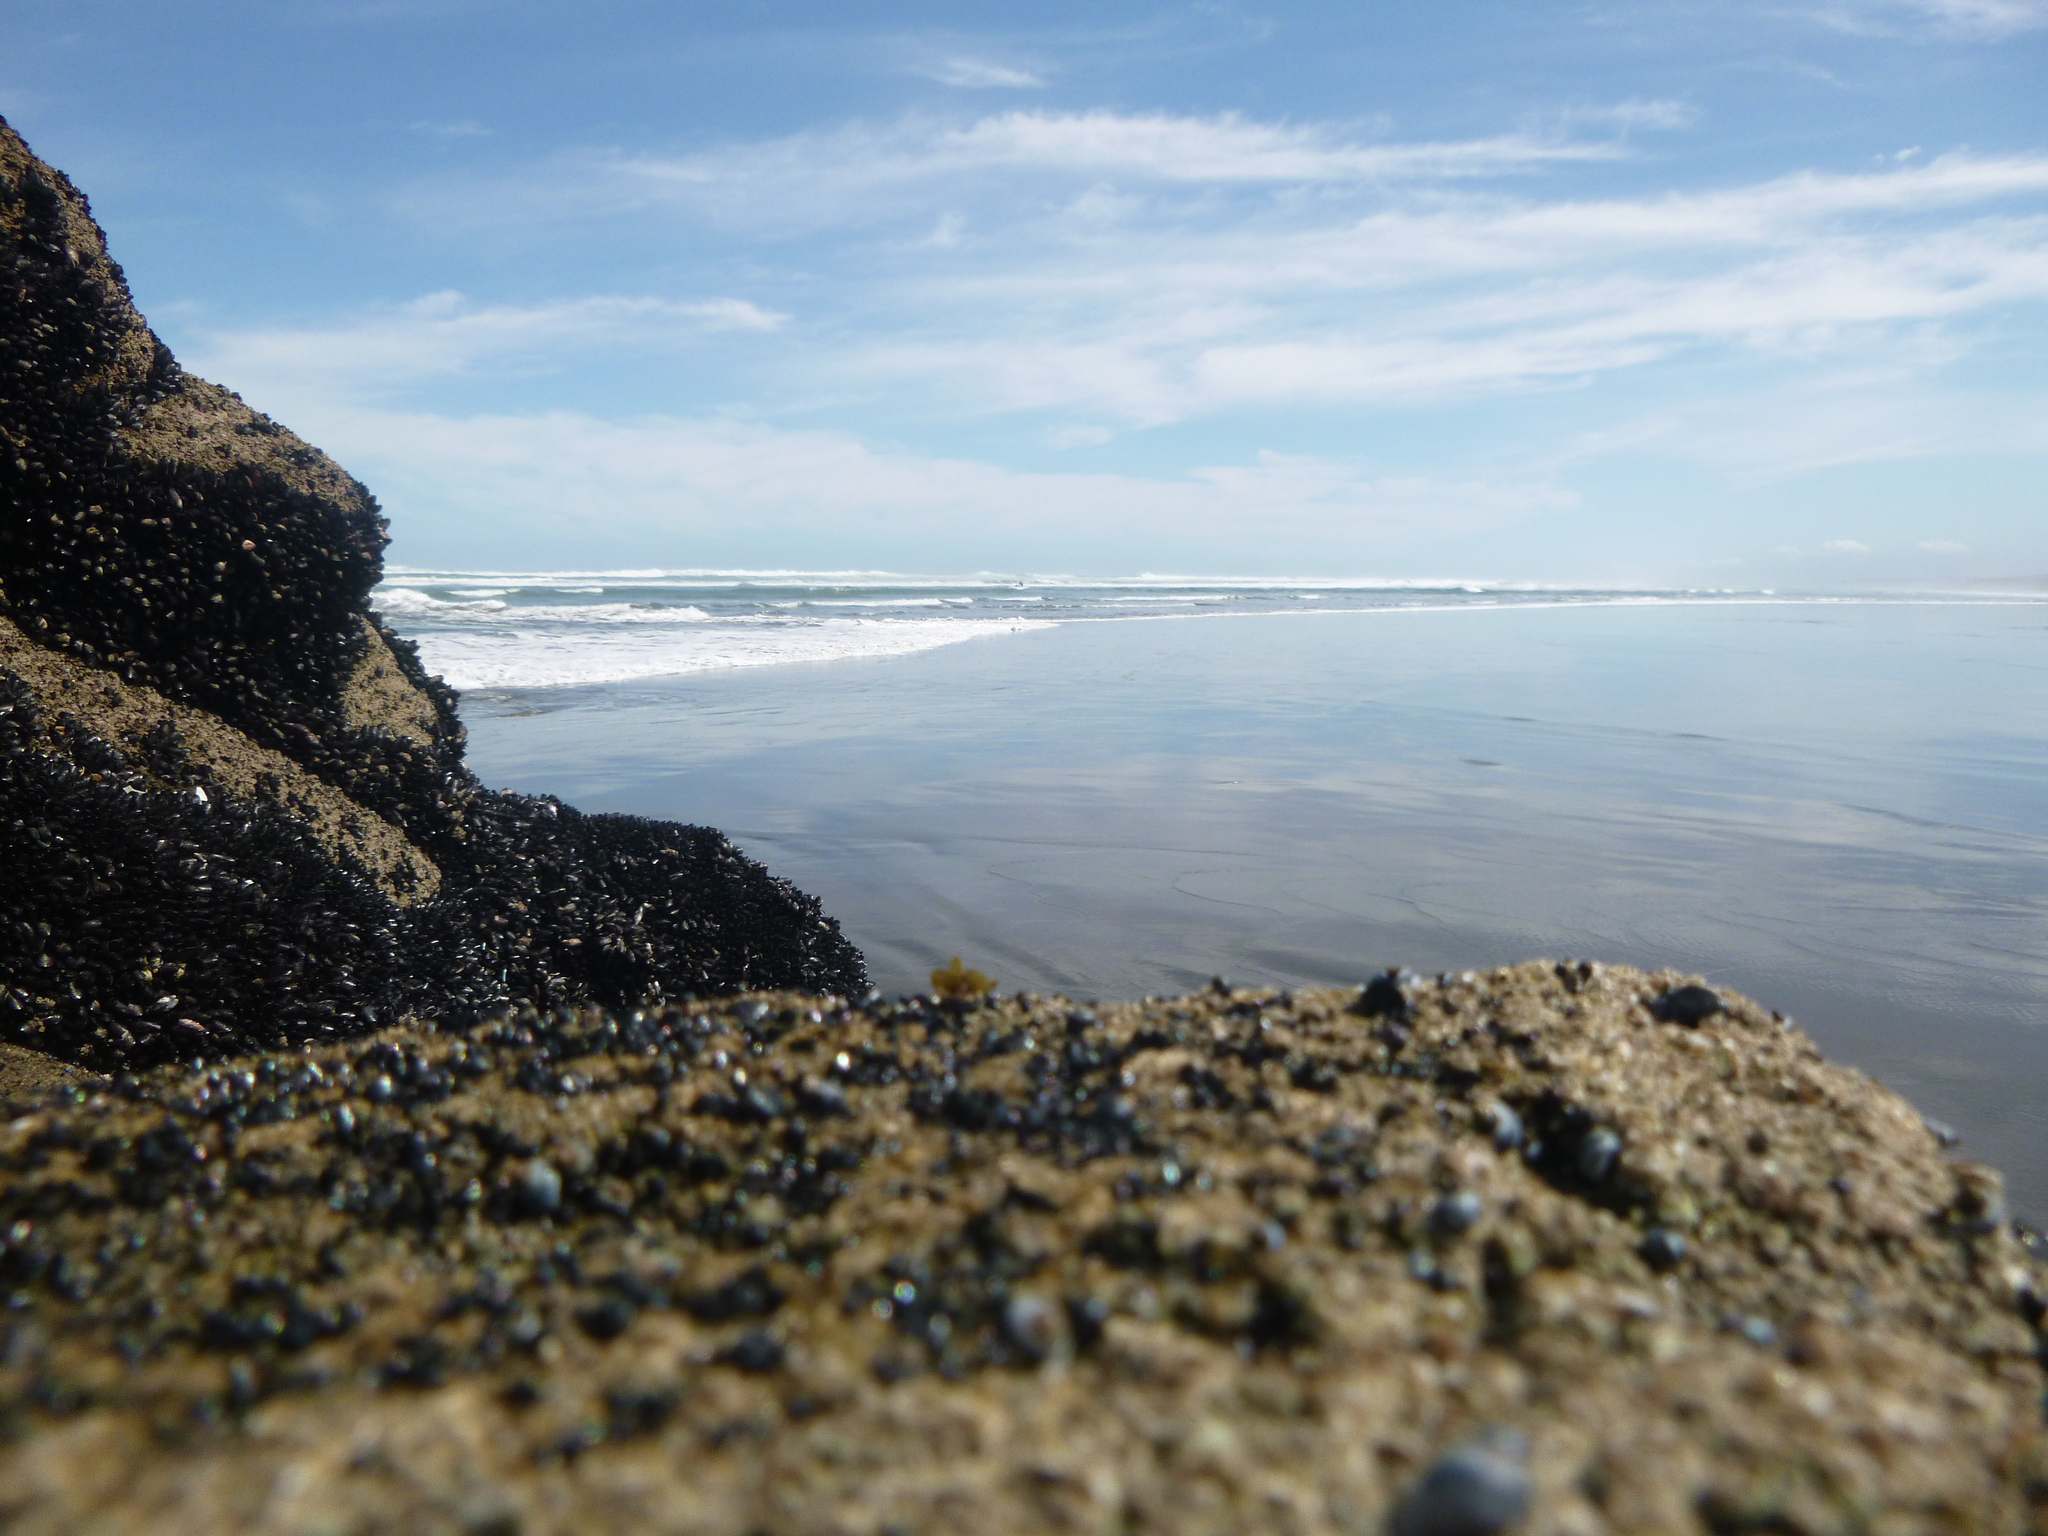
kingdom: Animalia
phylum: Mollusca
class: Bivalvia
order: Mytilida
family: Mytilidae
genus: Xenostrobus
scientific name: Xenostrobus neozelanicus
